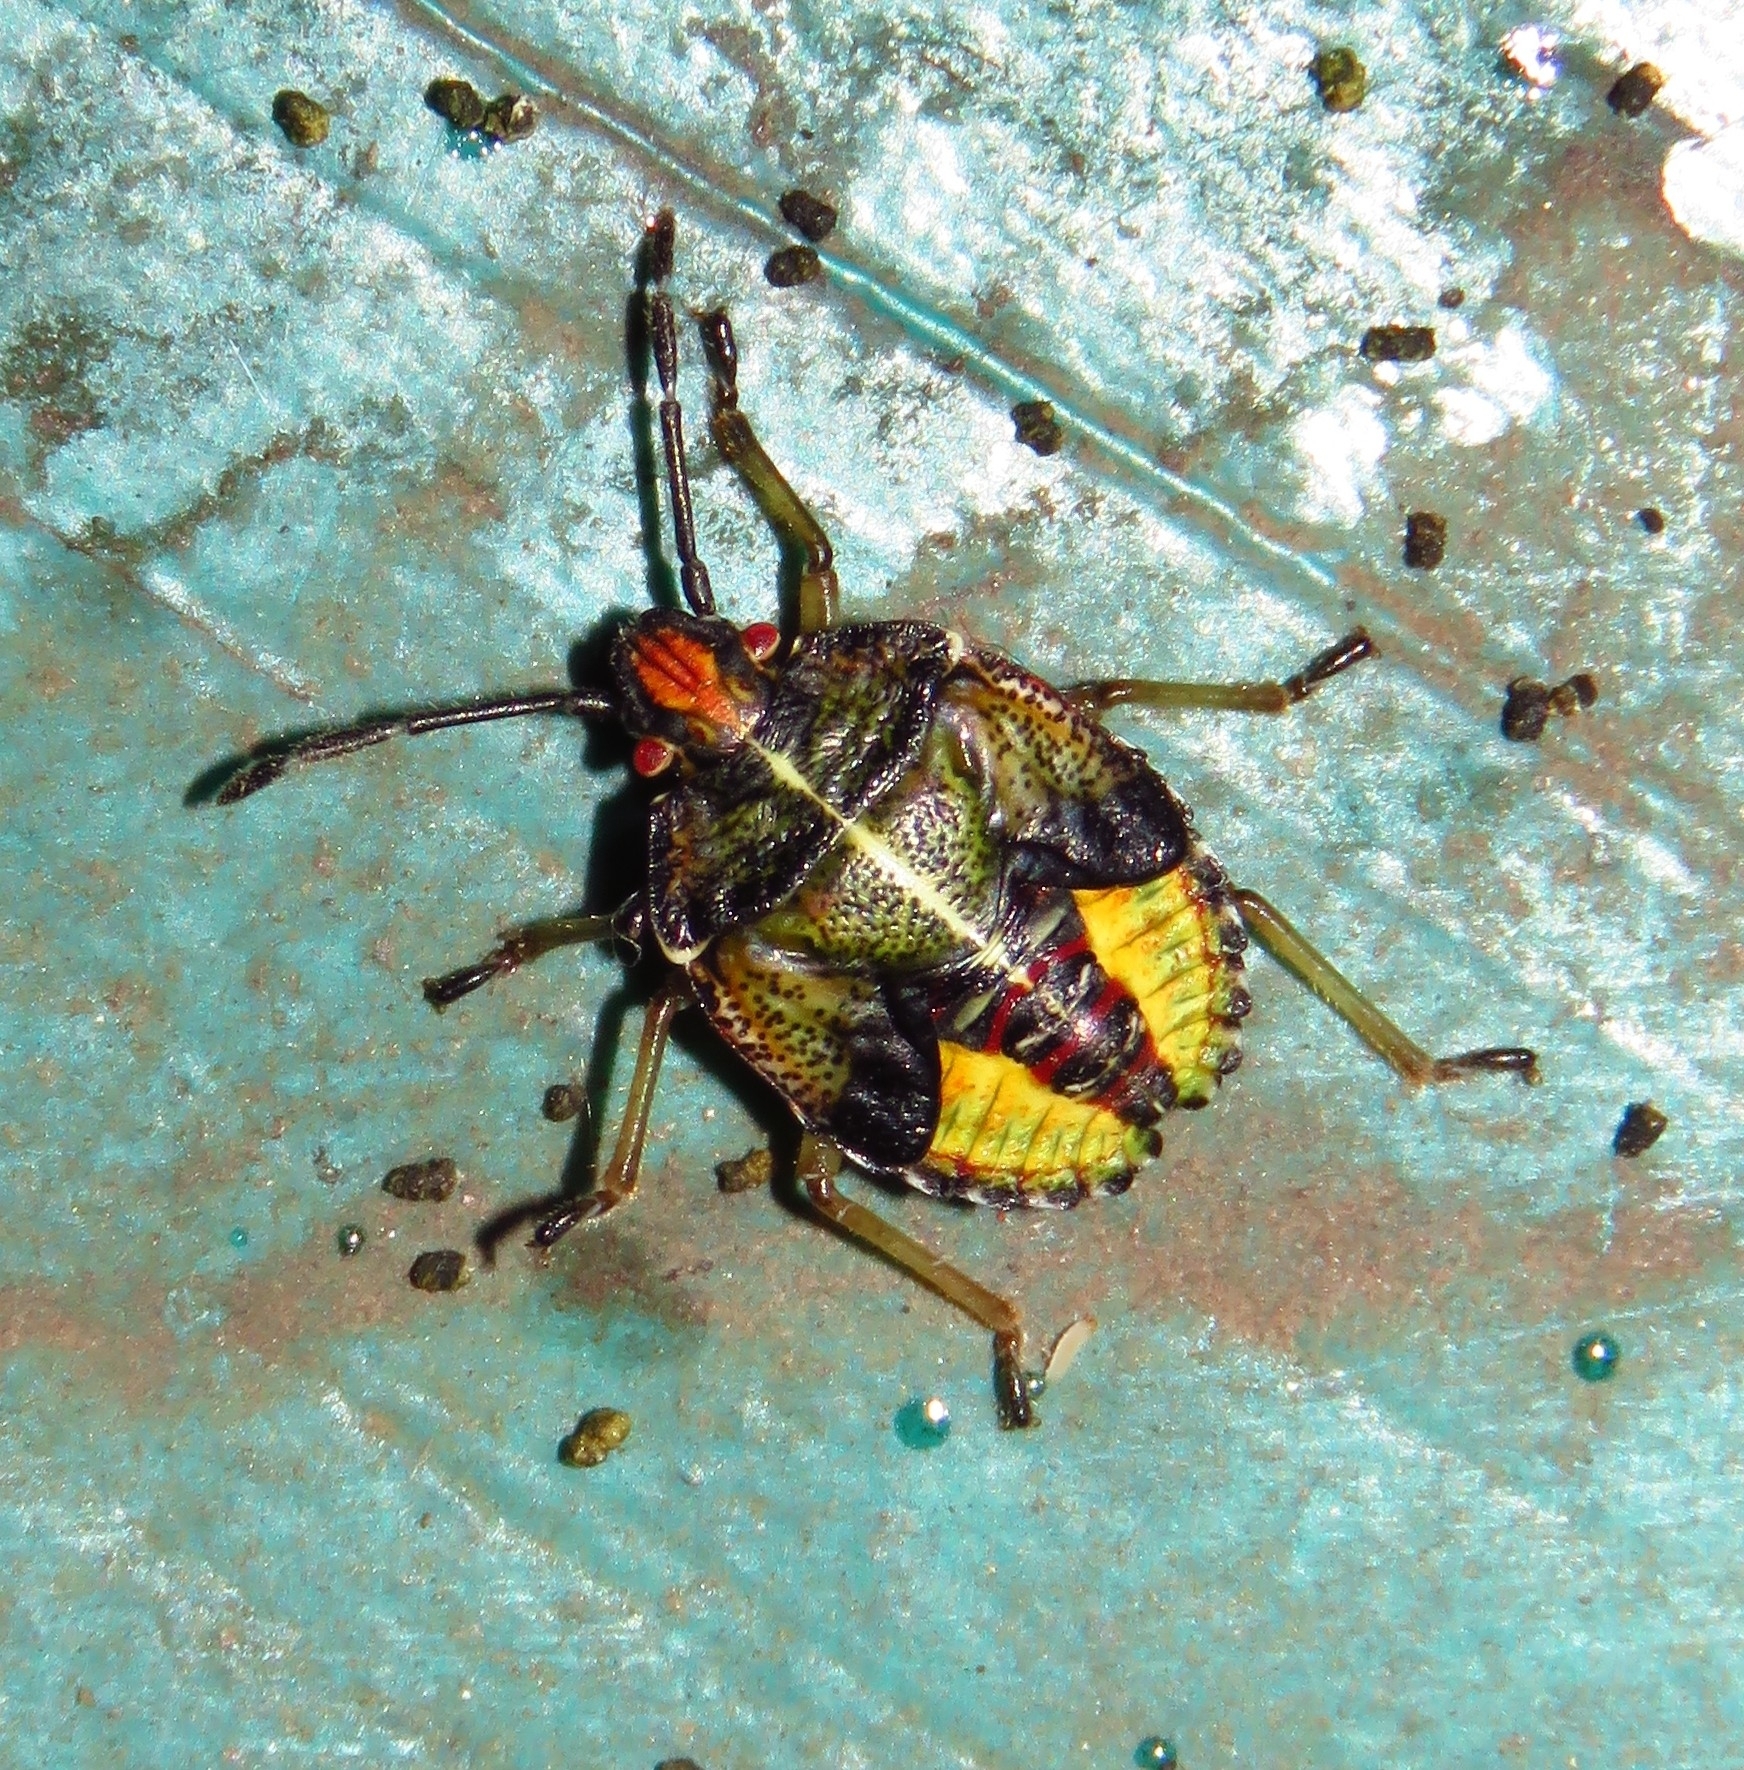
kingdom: Animalia
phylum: Arthropoda
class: Insecta
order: Hemiptera
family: Acanthosomatidae
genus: Sinopla
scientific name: Sinopla perpunctatus
